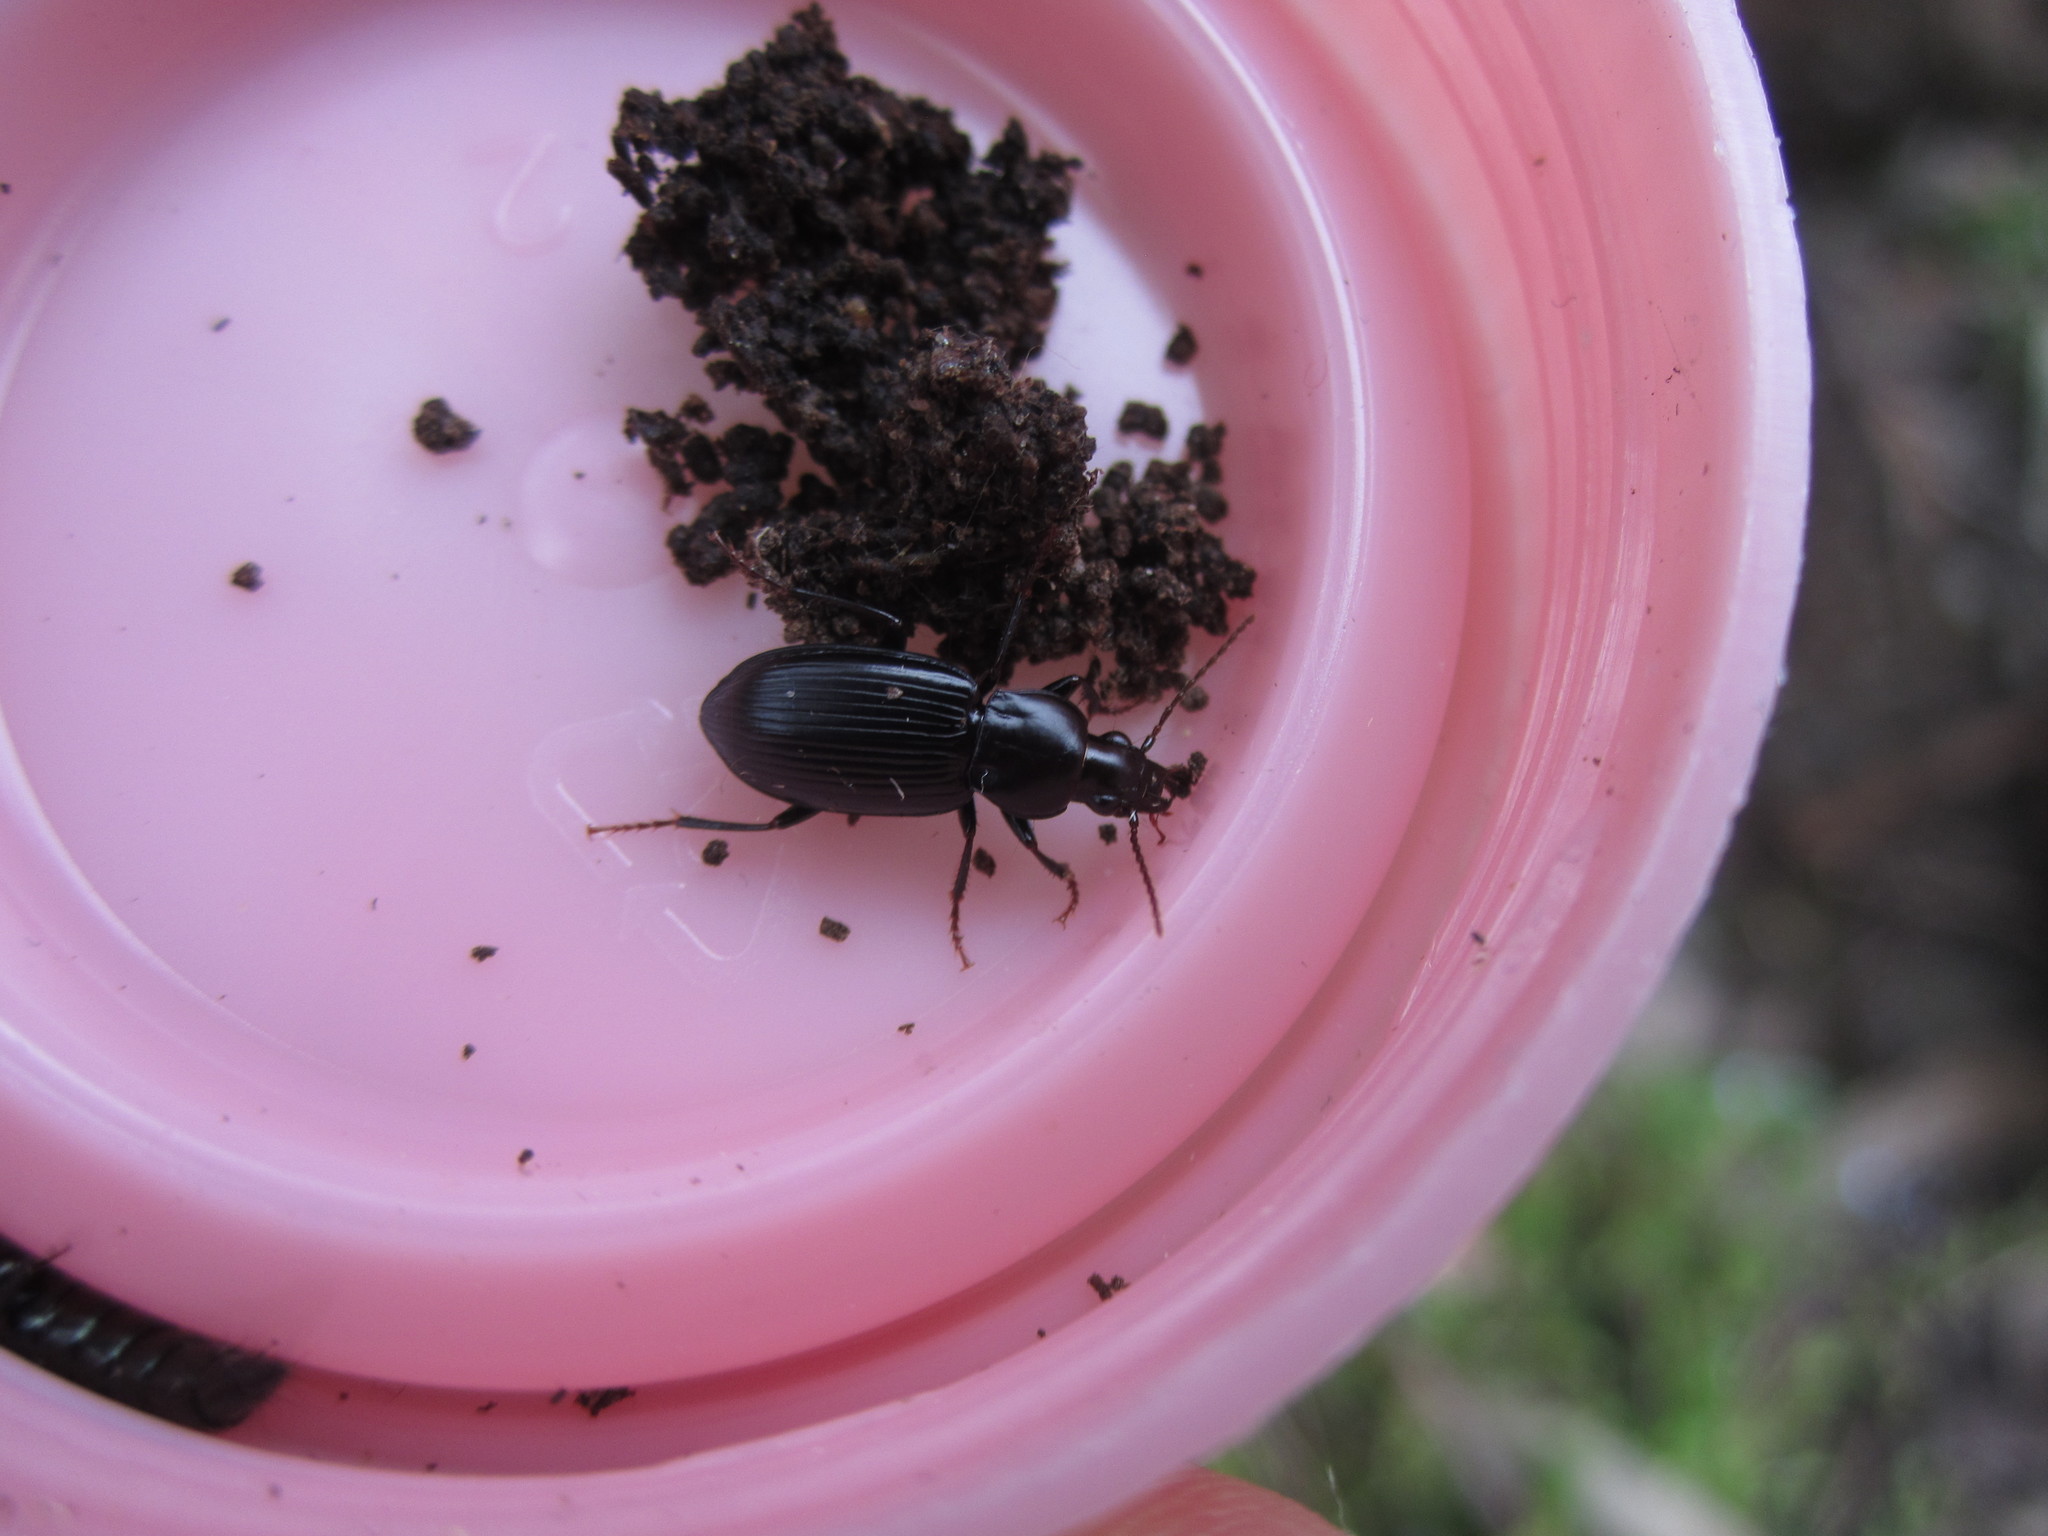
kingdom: Animalia
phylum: Arthropoda
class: Insecta
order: Coleoptera
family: Carabidae
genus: Rhytisternus
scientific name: Rhytisternus miser
